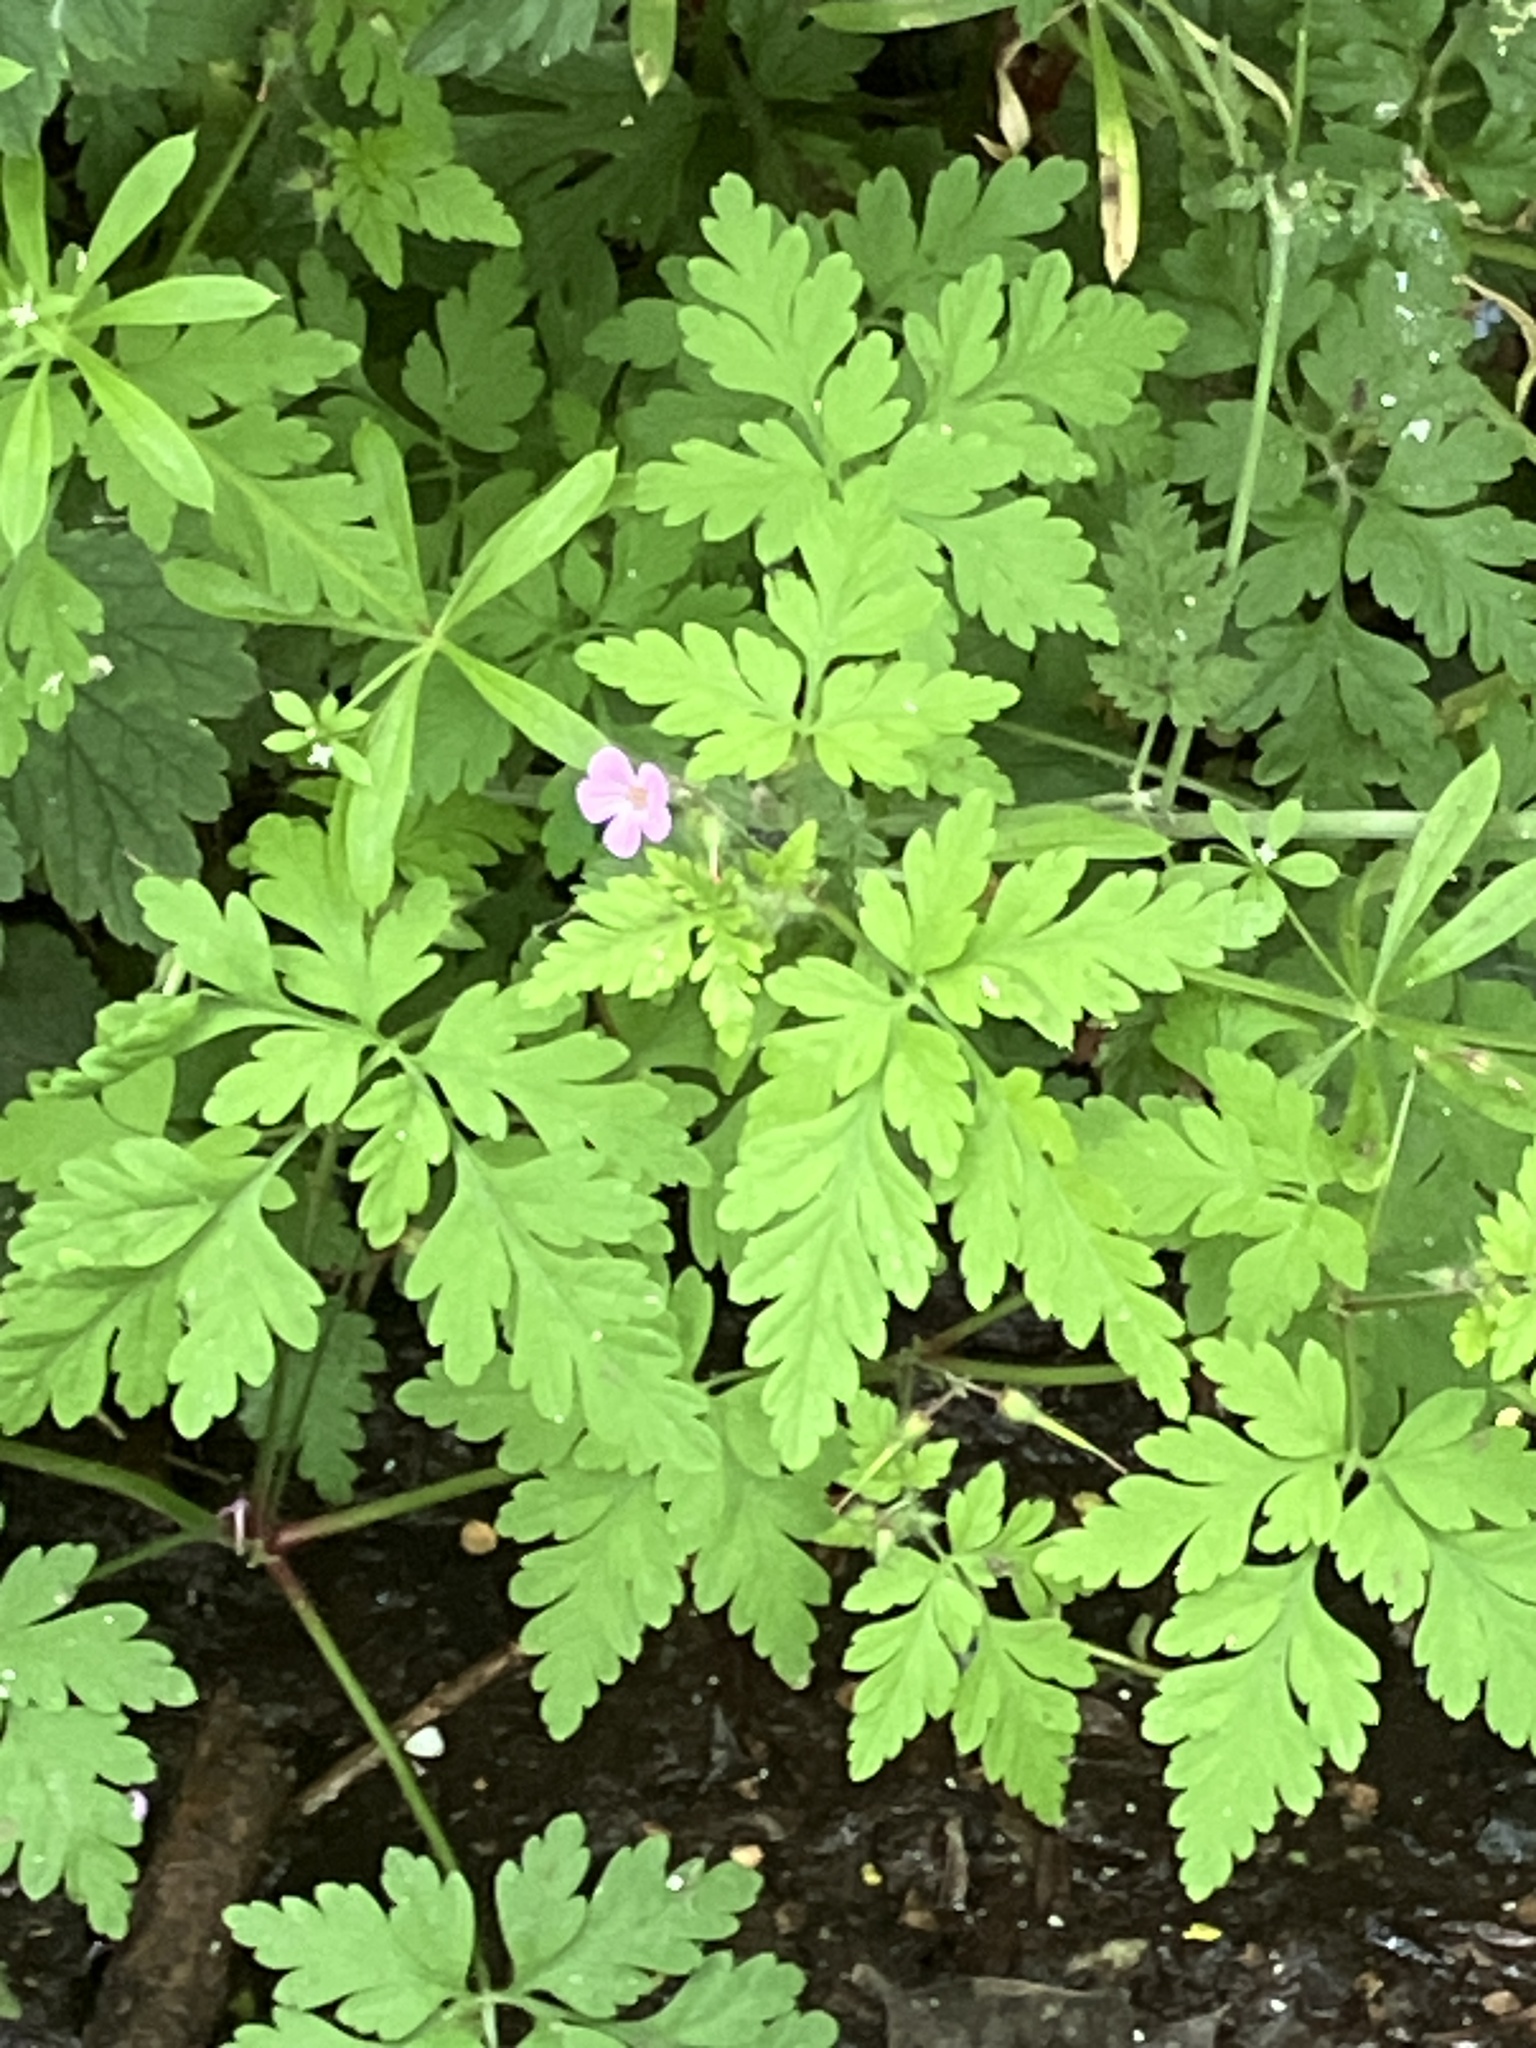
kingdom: Plantae
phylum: Tracheophyta
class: Magnoliopsida
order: Geraniales
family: Geraniaceae
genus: Geranium
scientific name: Geranium robertianum
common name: Herb-robert
